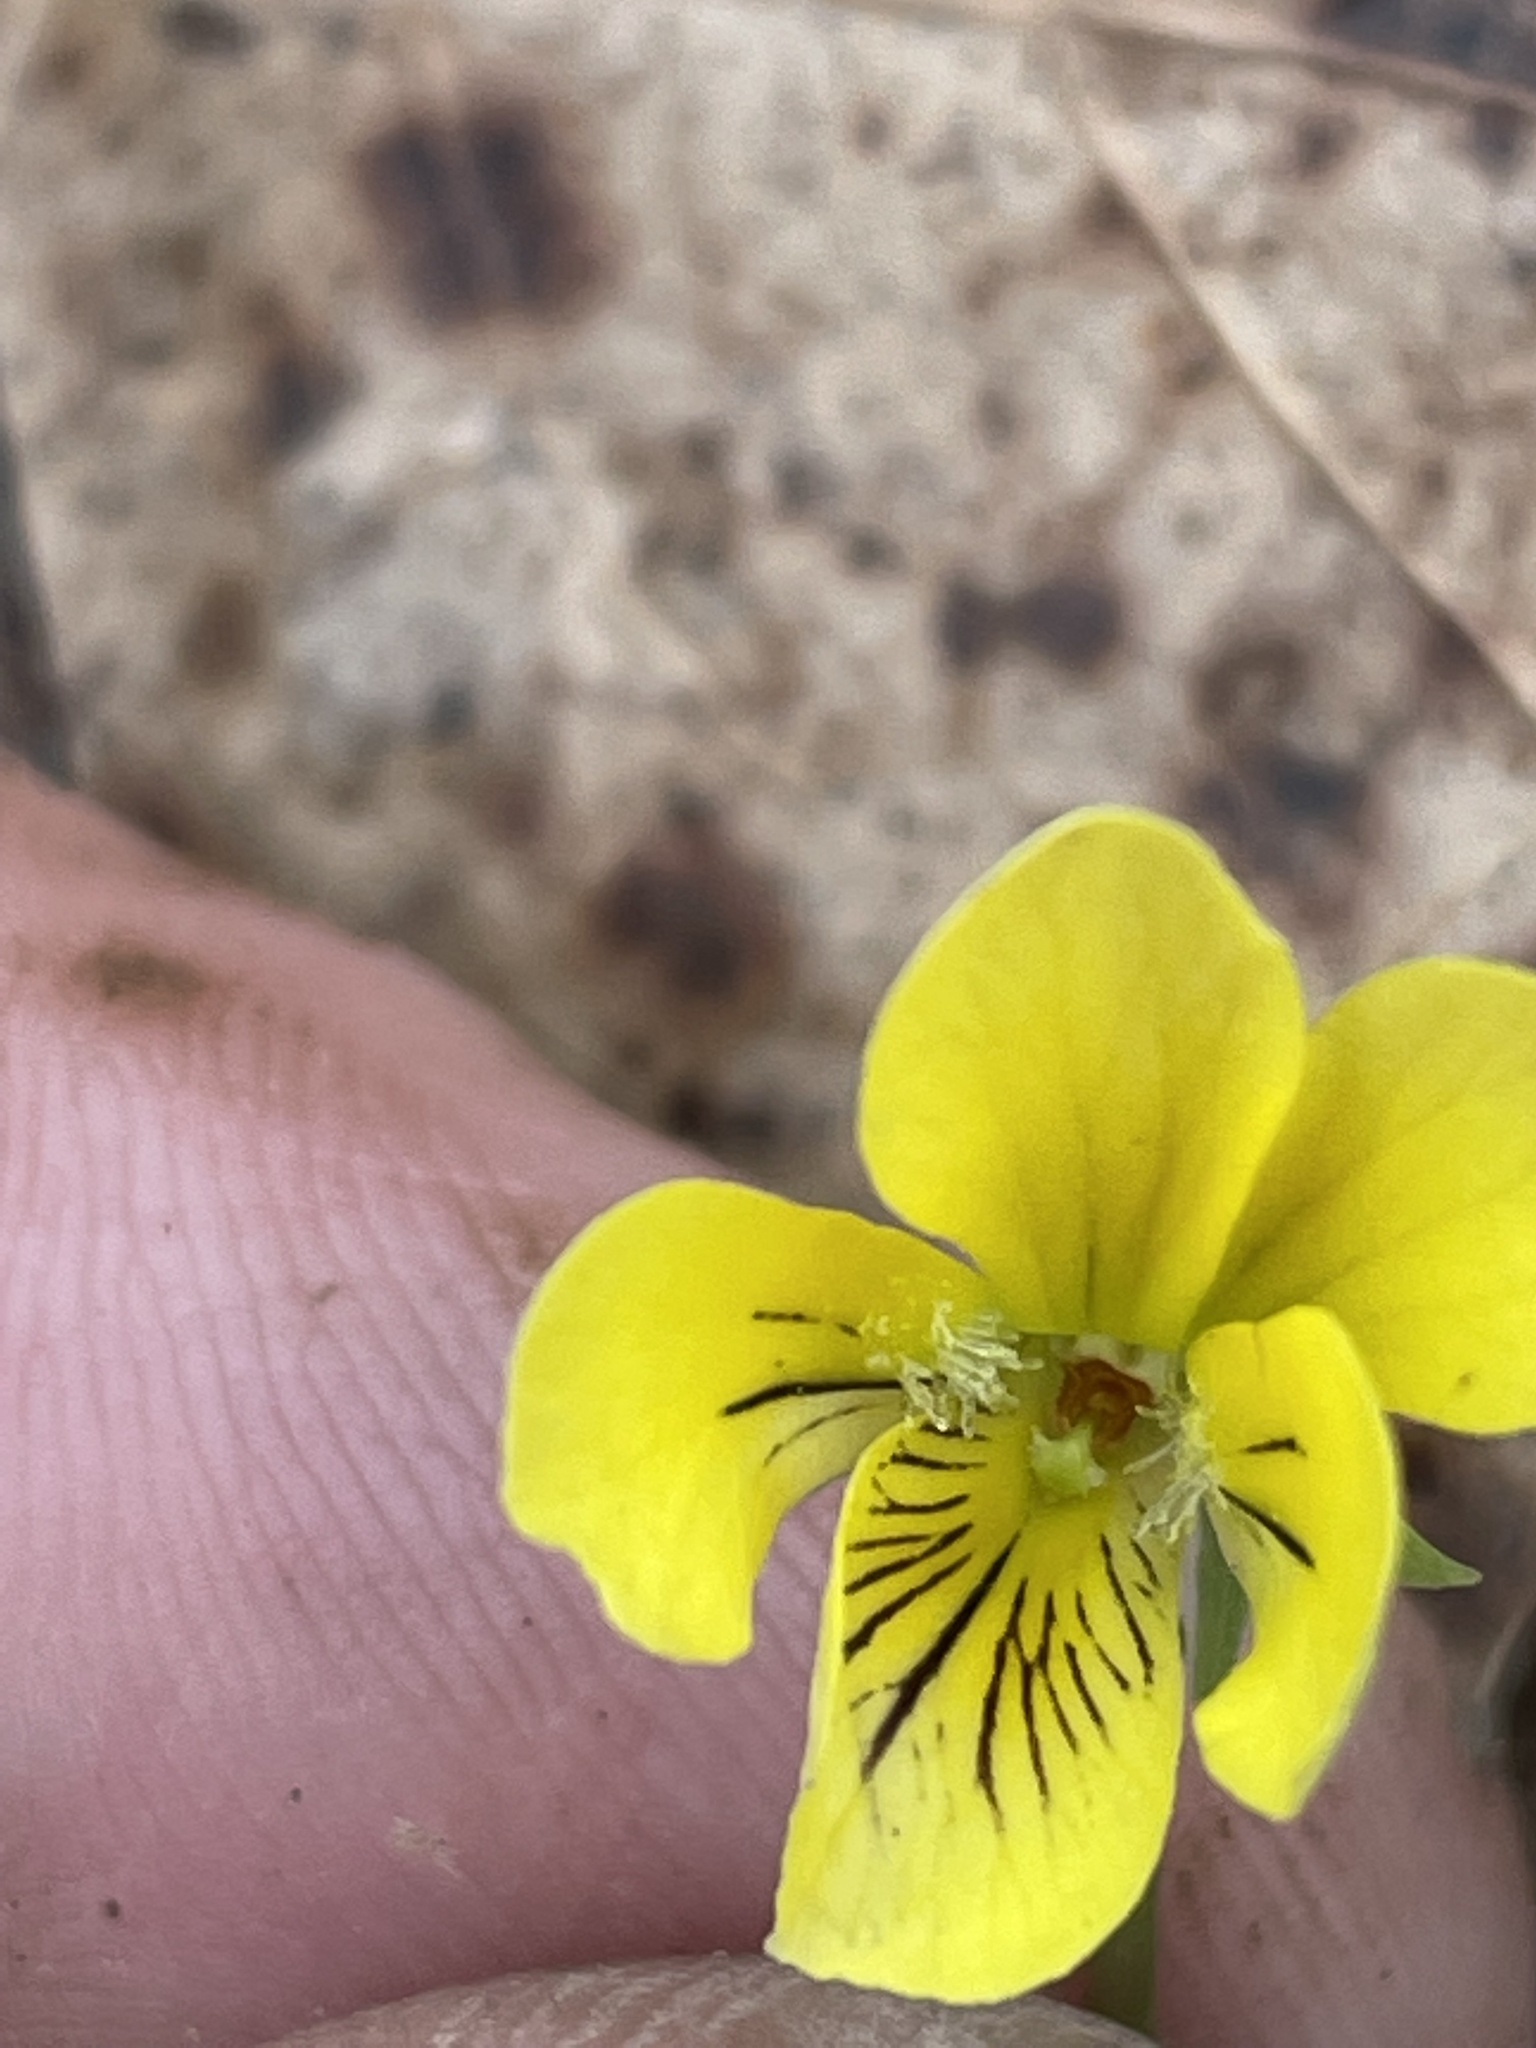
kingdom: Plantae
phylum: Tracheophyta
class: Magnoliopsida
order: Malpighiales
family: Violaceae
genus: Viola
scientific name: Viola hastata
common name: Spear-leaf violet
